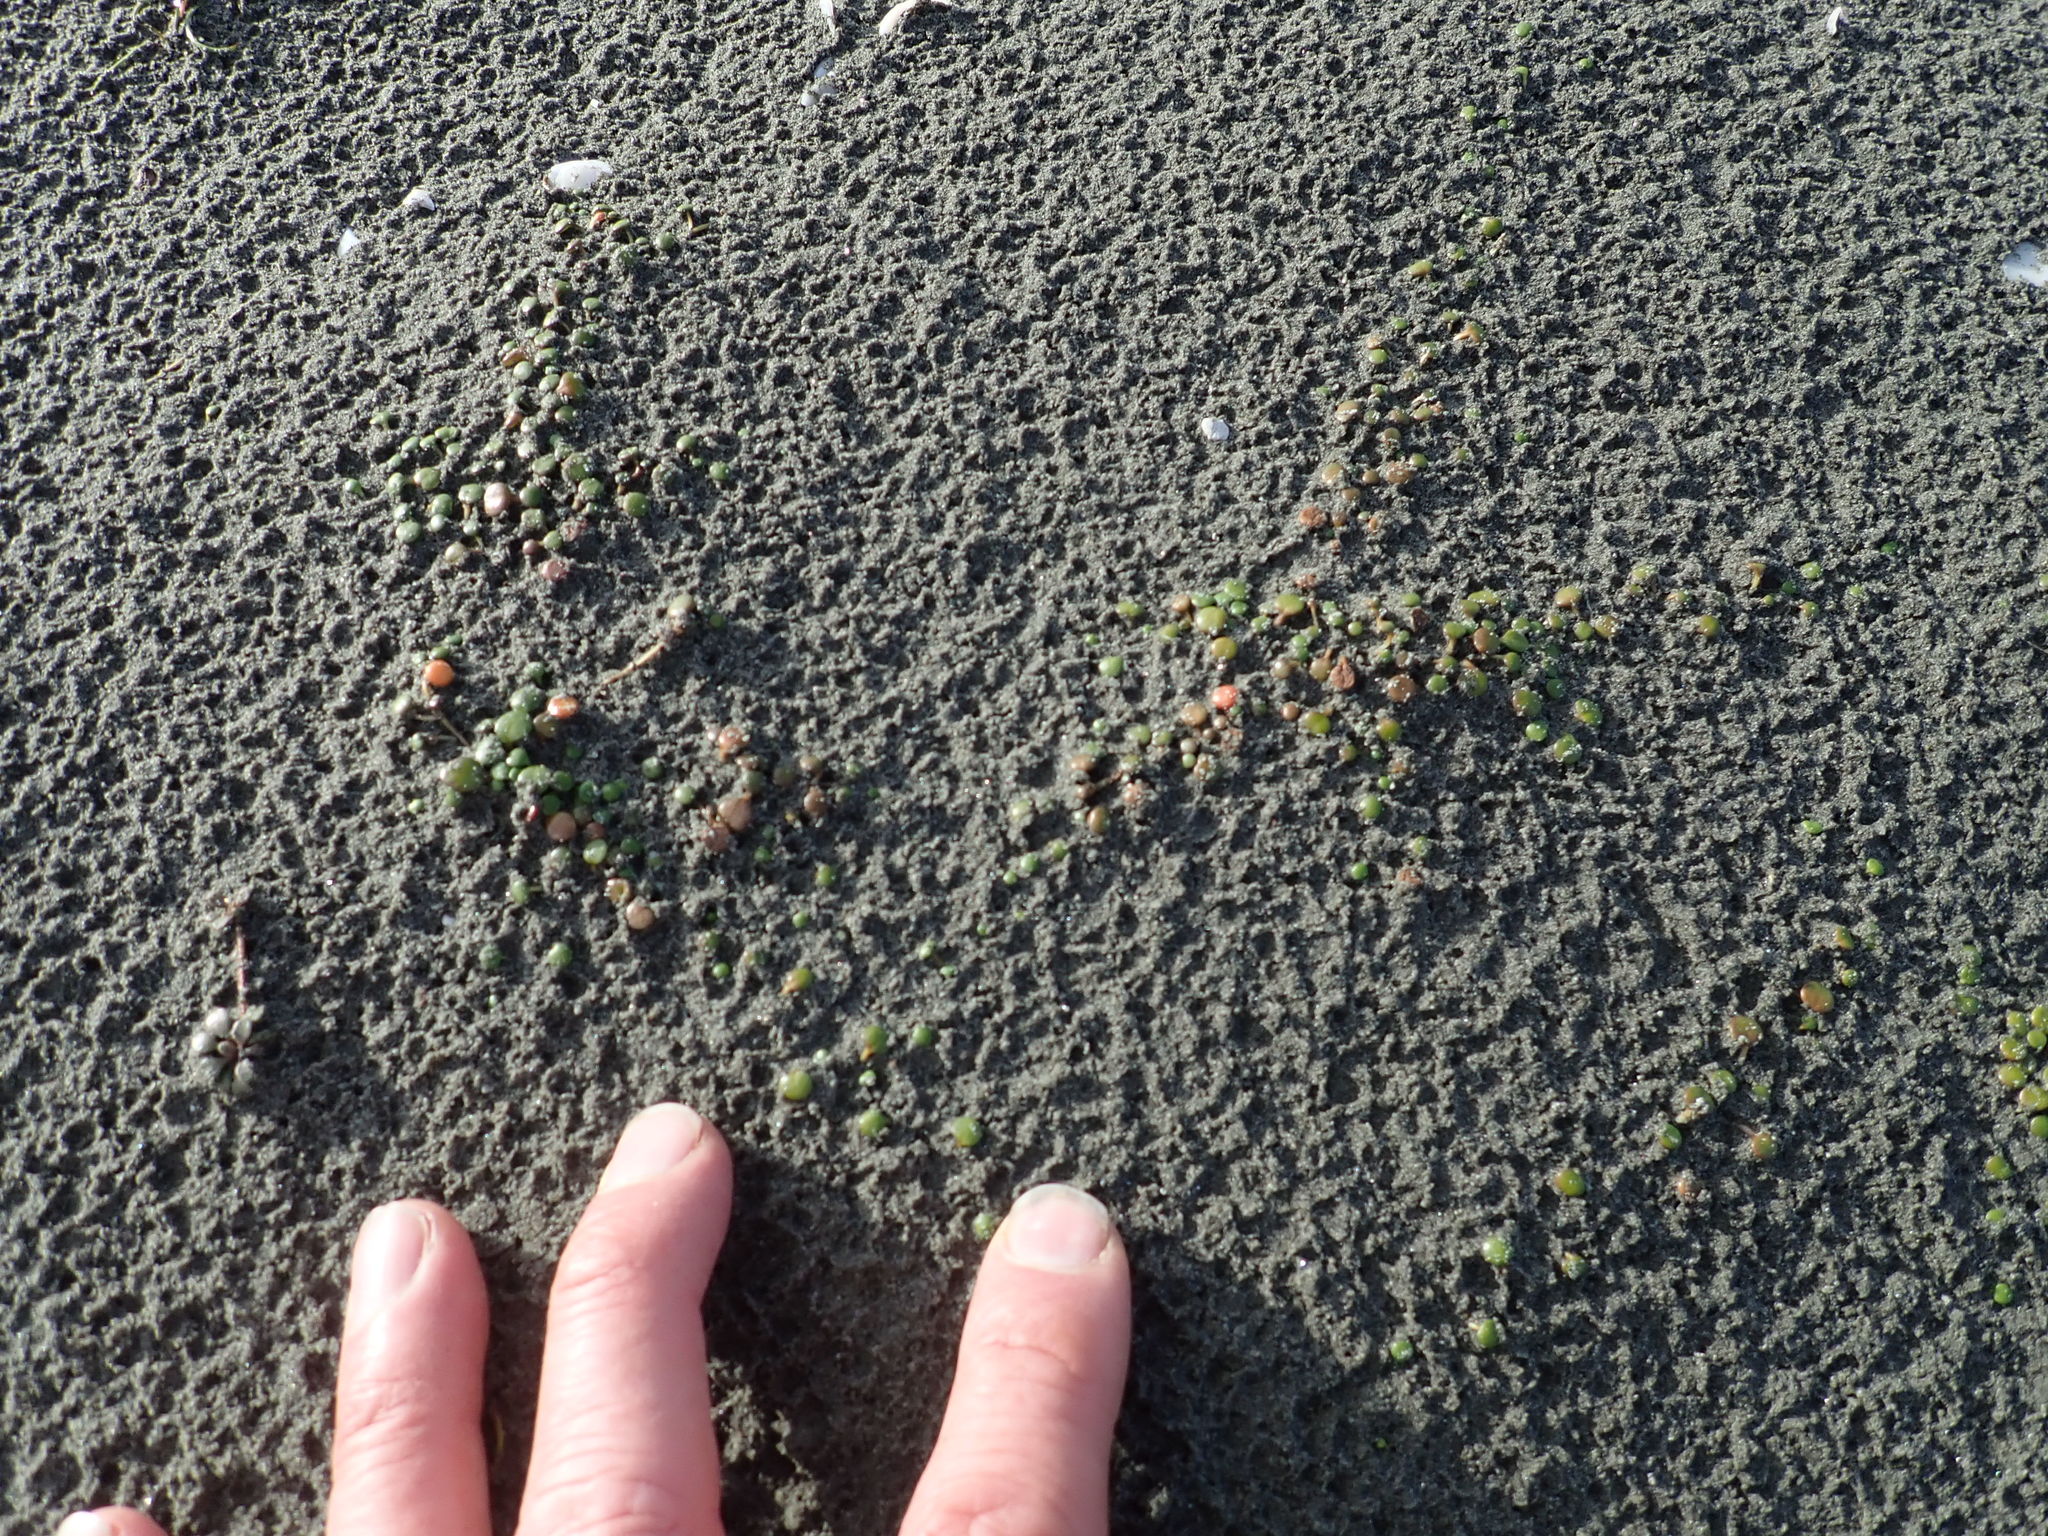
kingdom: Plantae
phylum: Tracheophyta
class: Magnoliopsida
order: Asterales
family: Goodeniaceae
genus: Goodenia
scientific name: Goodenia heenanii
